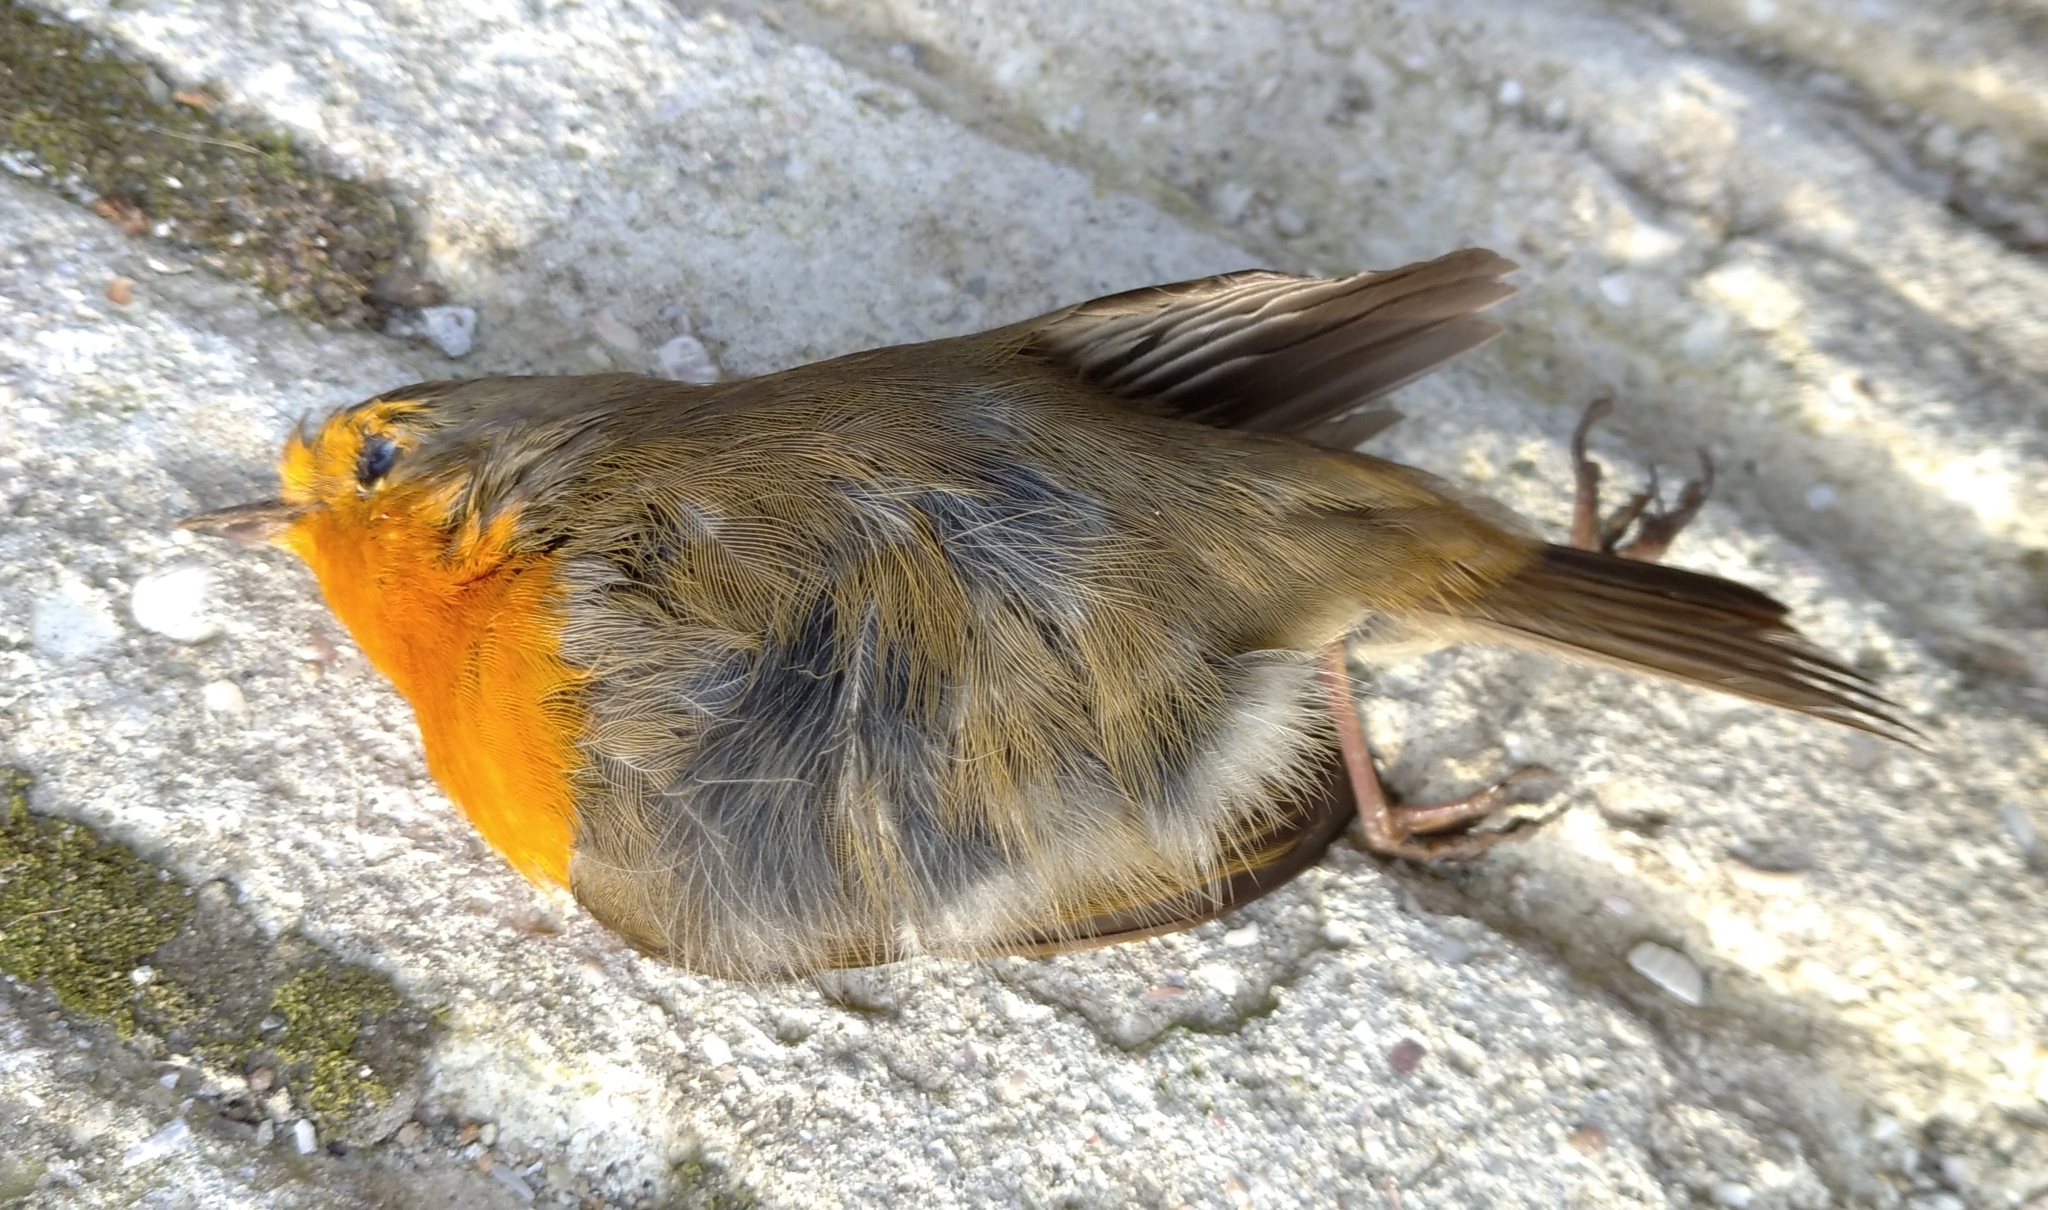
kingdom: Animalia
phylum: Chordata
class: Aves
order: Passeriformes
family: Muscicapidae
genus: Erithacus
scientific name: Erithacus rubecula
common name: European robin
